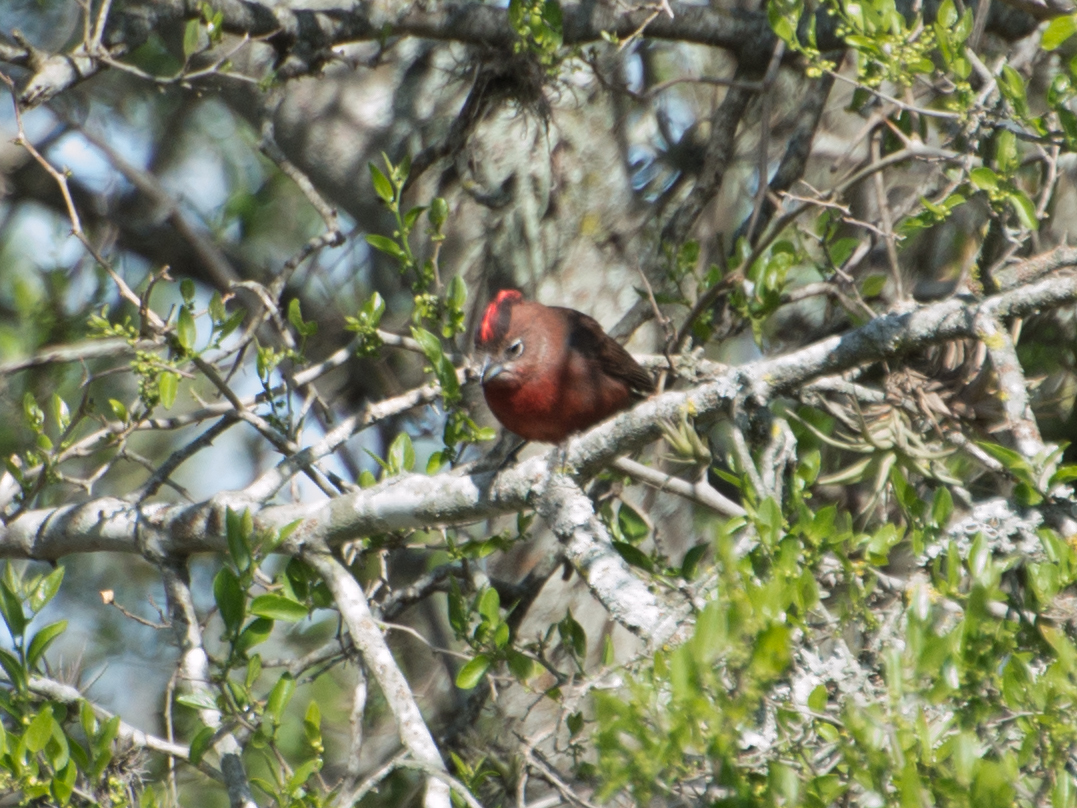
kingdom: Animalia
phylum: Chordata
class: Aves
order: Passeriformes
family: Thraupidae
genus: Coryphospingus
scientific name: Coryphospingus cucullatus
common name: Red pileated finch
